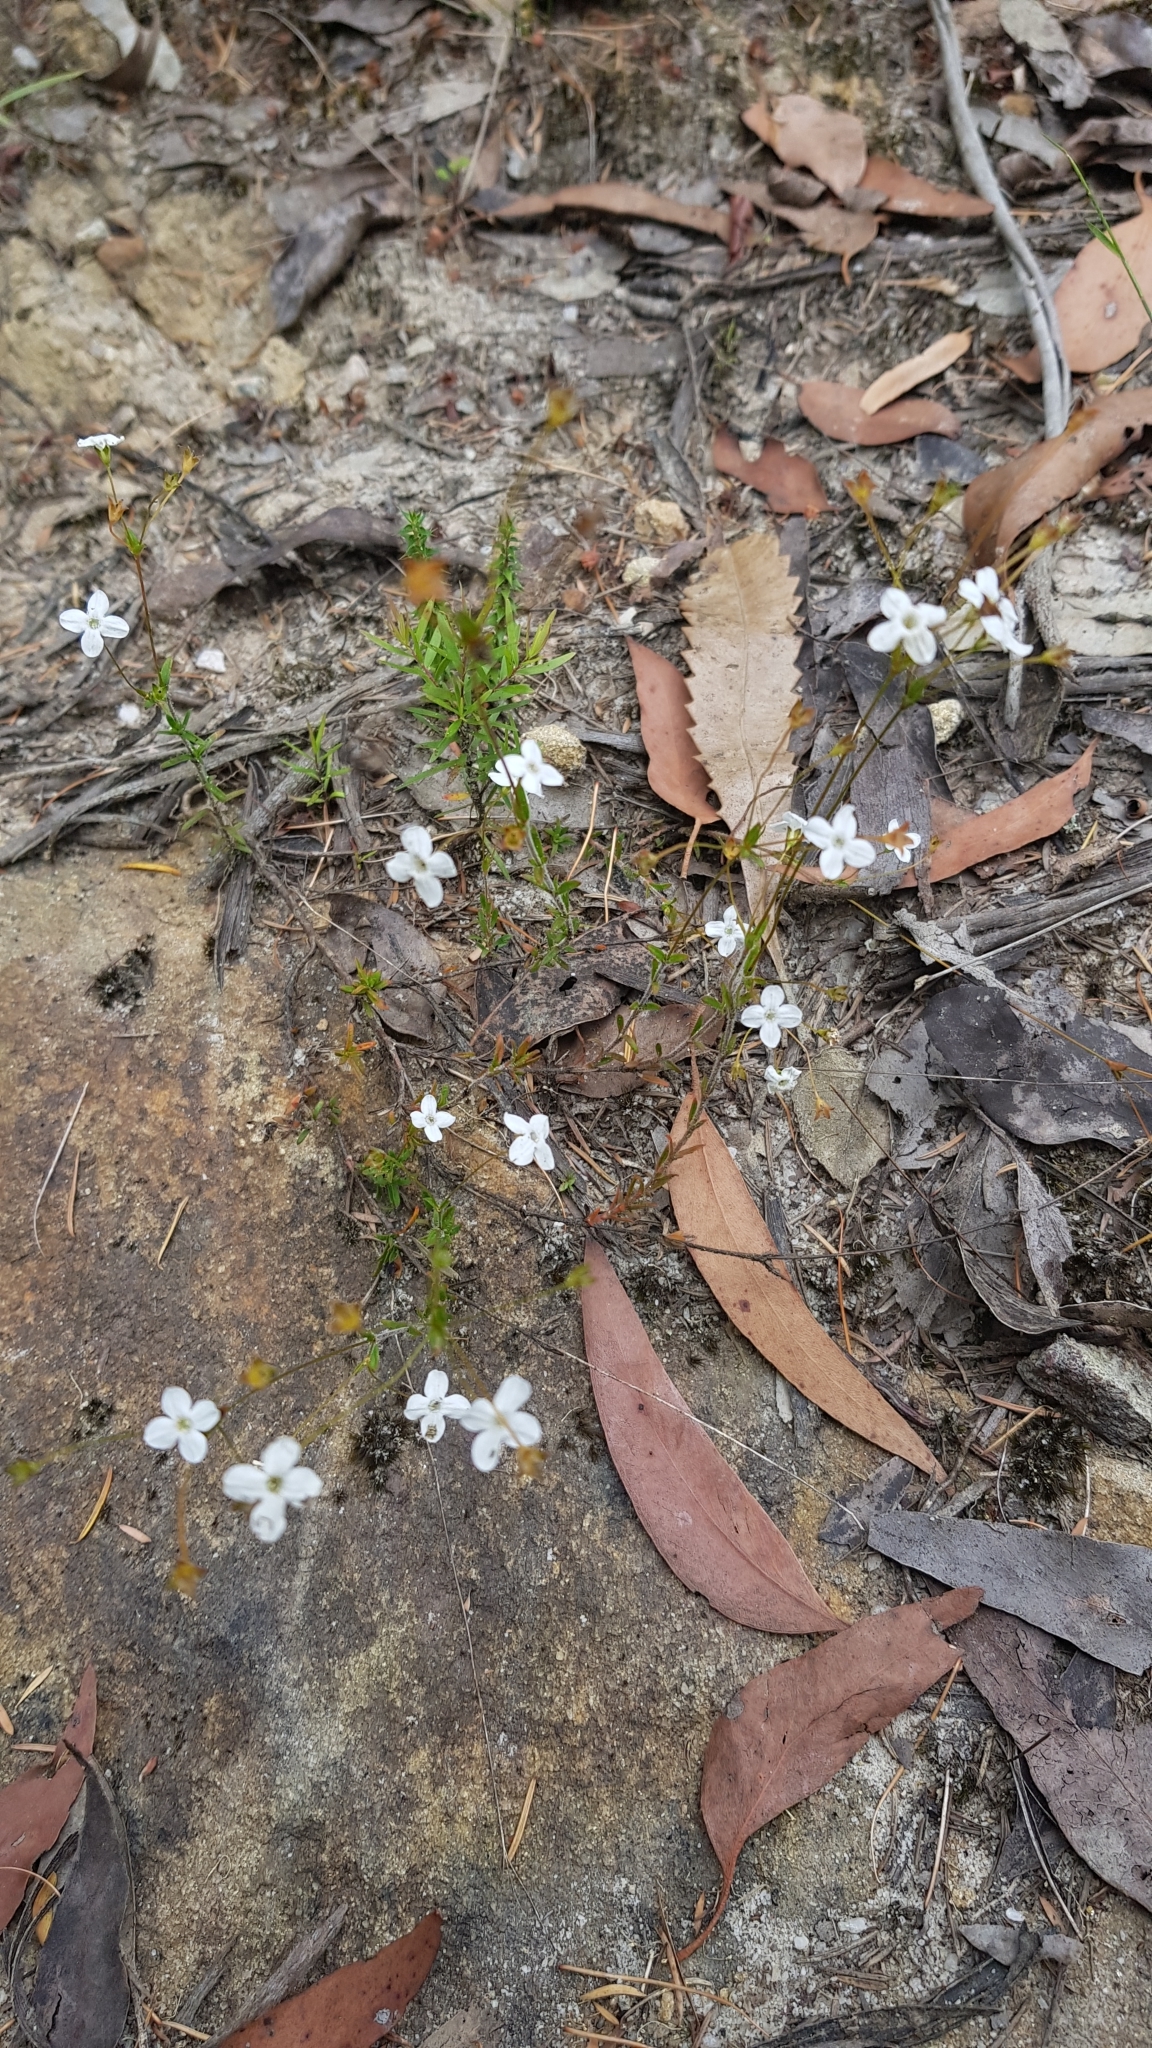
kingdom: Plantae
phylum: Tracheophyta
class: Magnoliopsida
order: Gentianales
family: Loganiaceae
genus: Mitrasacme
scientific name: Mitrasacme polymorpha
